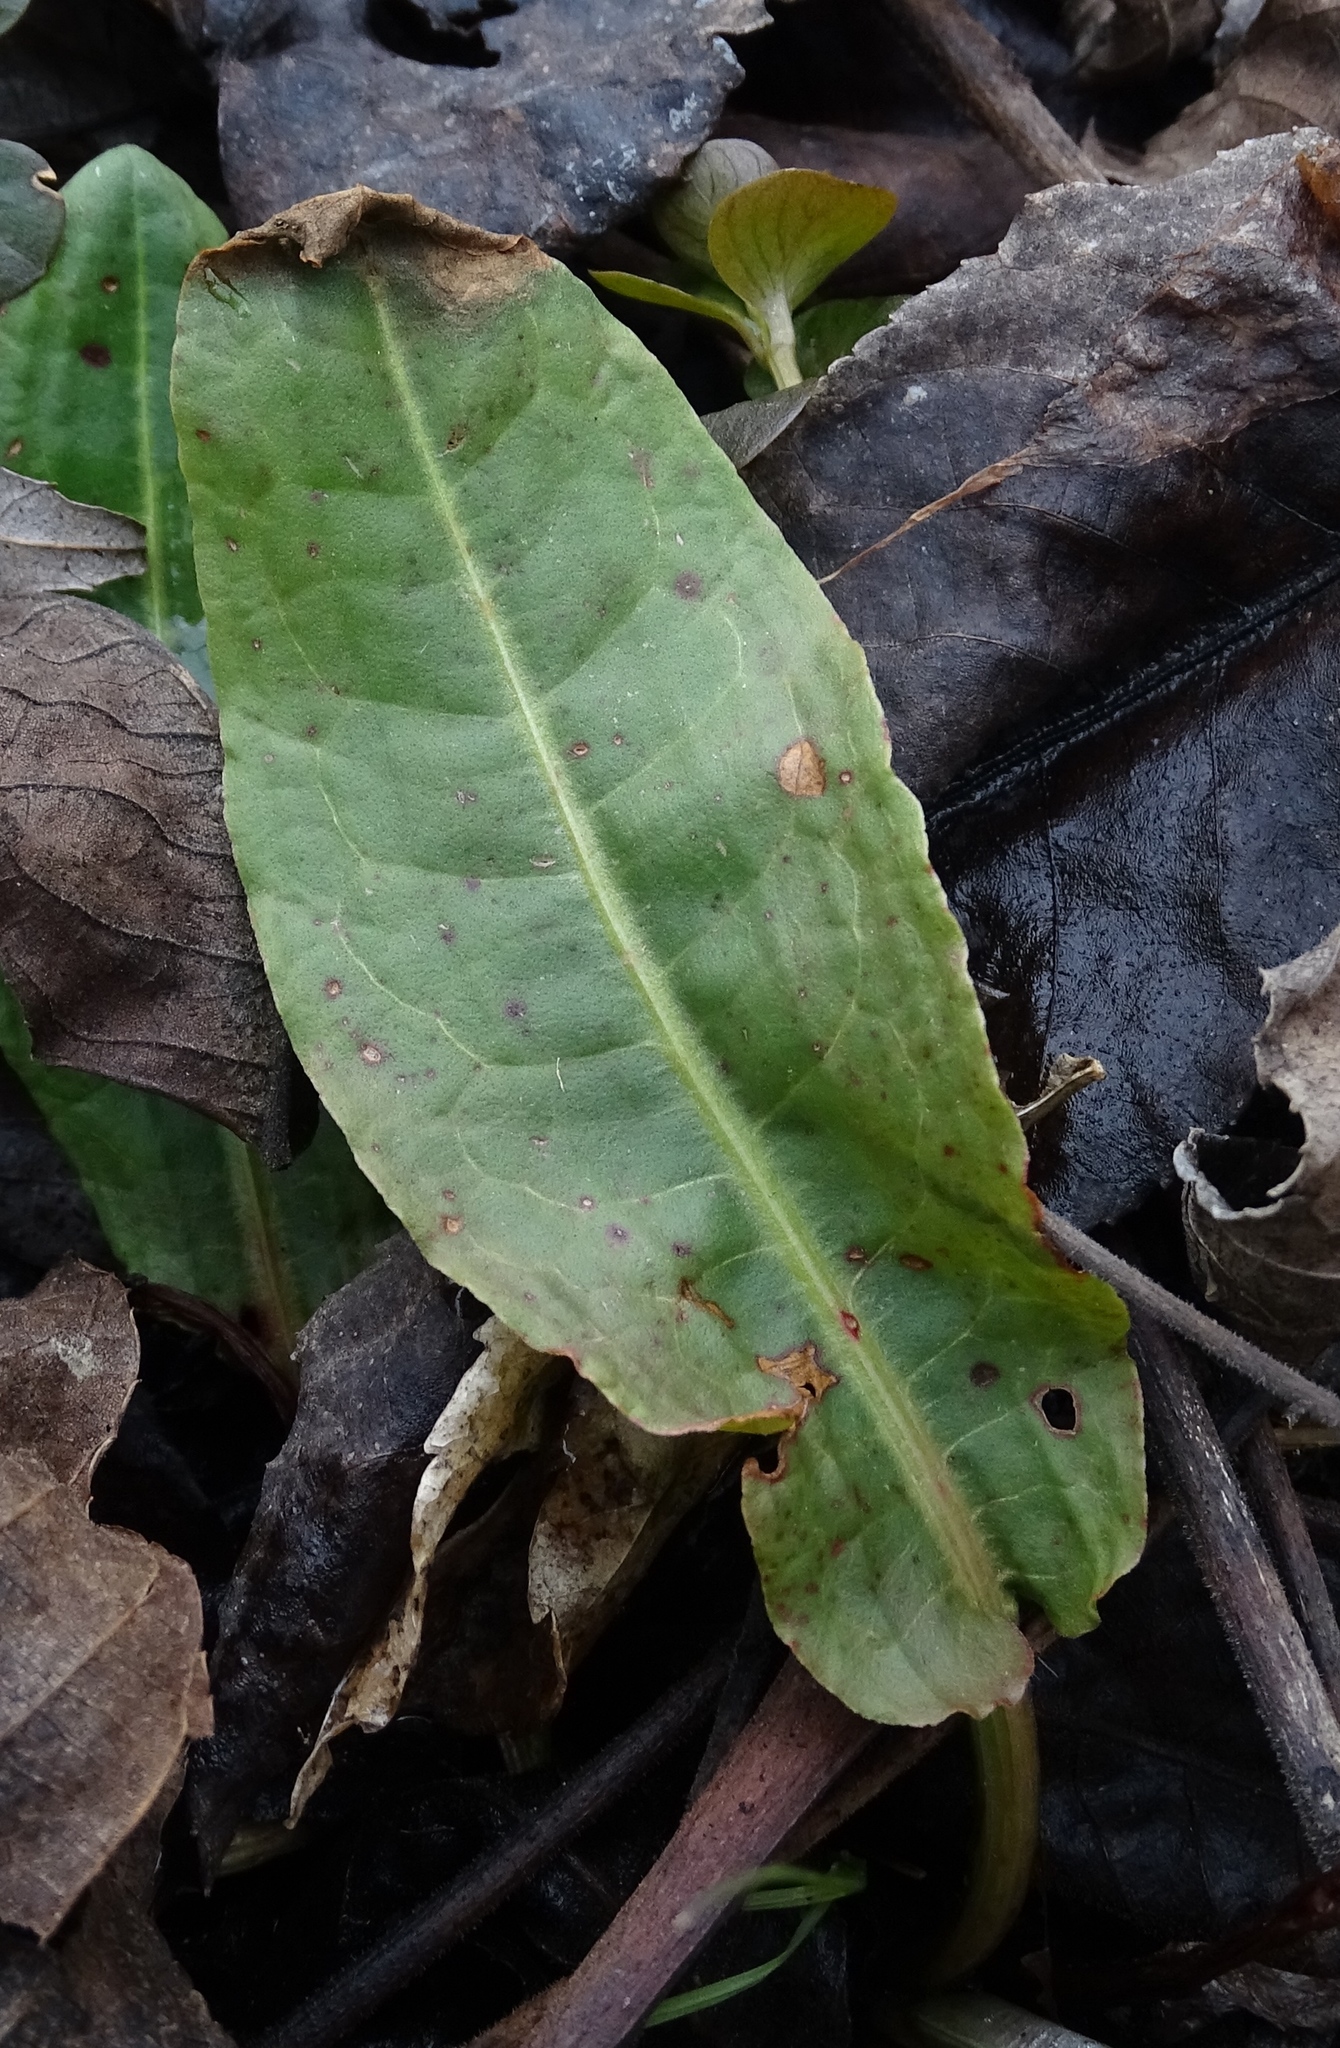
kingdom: Plantae
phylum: Tracheophyta
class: Magnoliopsida
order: Caryophyllales
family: Polygonaceae
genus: Rumex
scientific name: Rumex obtusifolius
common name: Bitter dock
